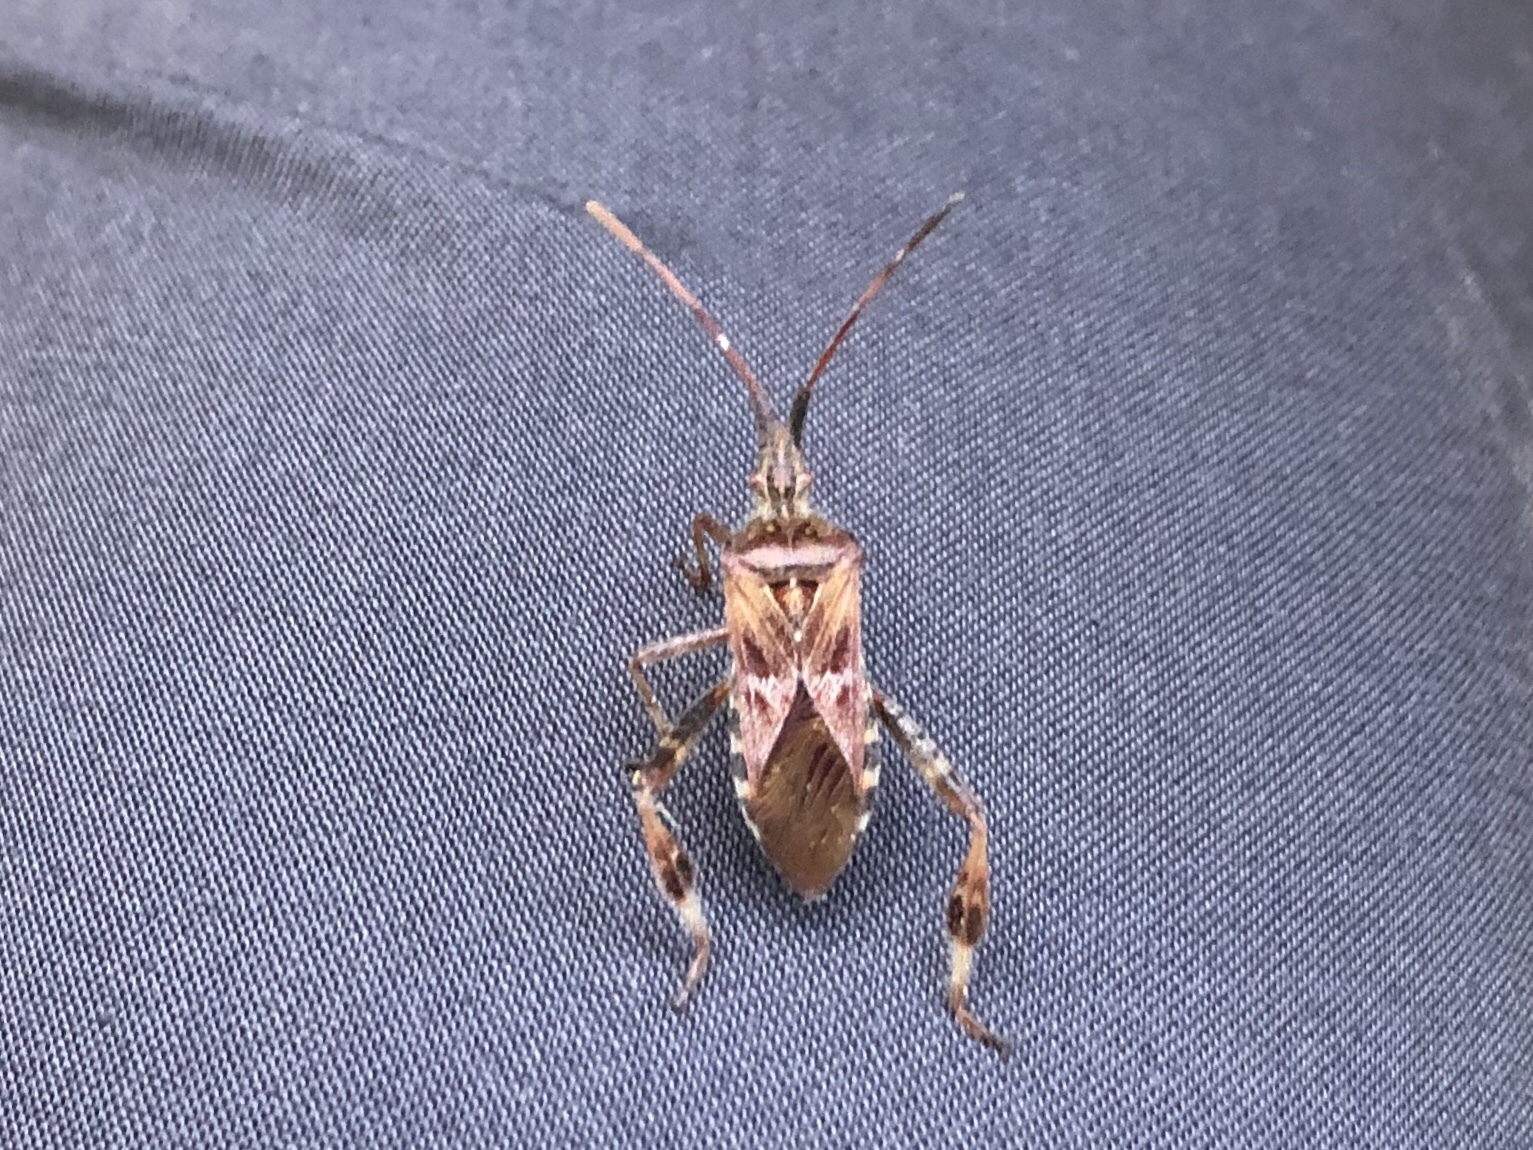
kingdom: Animalia
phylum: Arthropoda
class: Insecta
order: Hemiptera
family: Coreidae
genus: Leptoglossus
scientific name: Leptoglossus occidentalis
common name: Western conifer-seed bug
